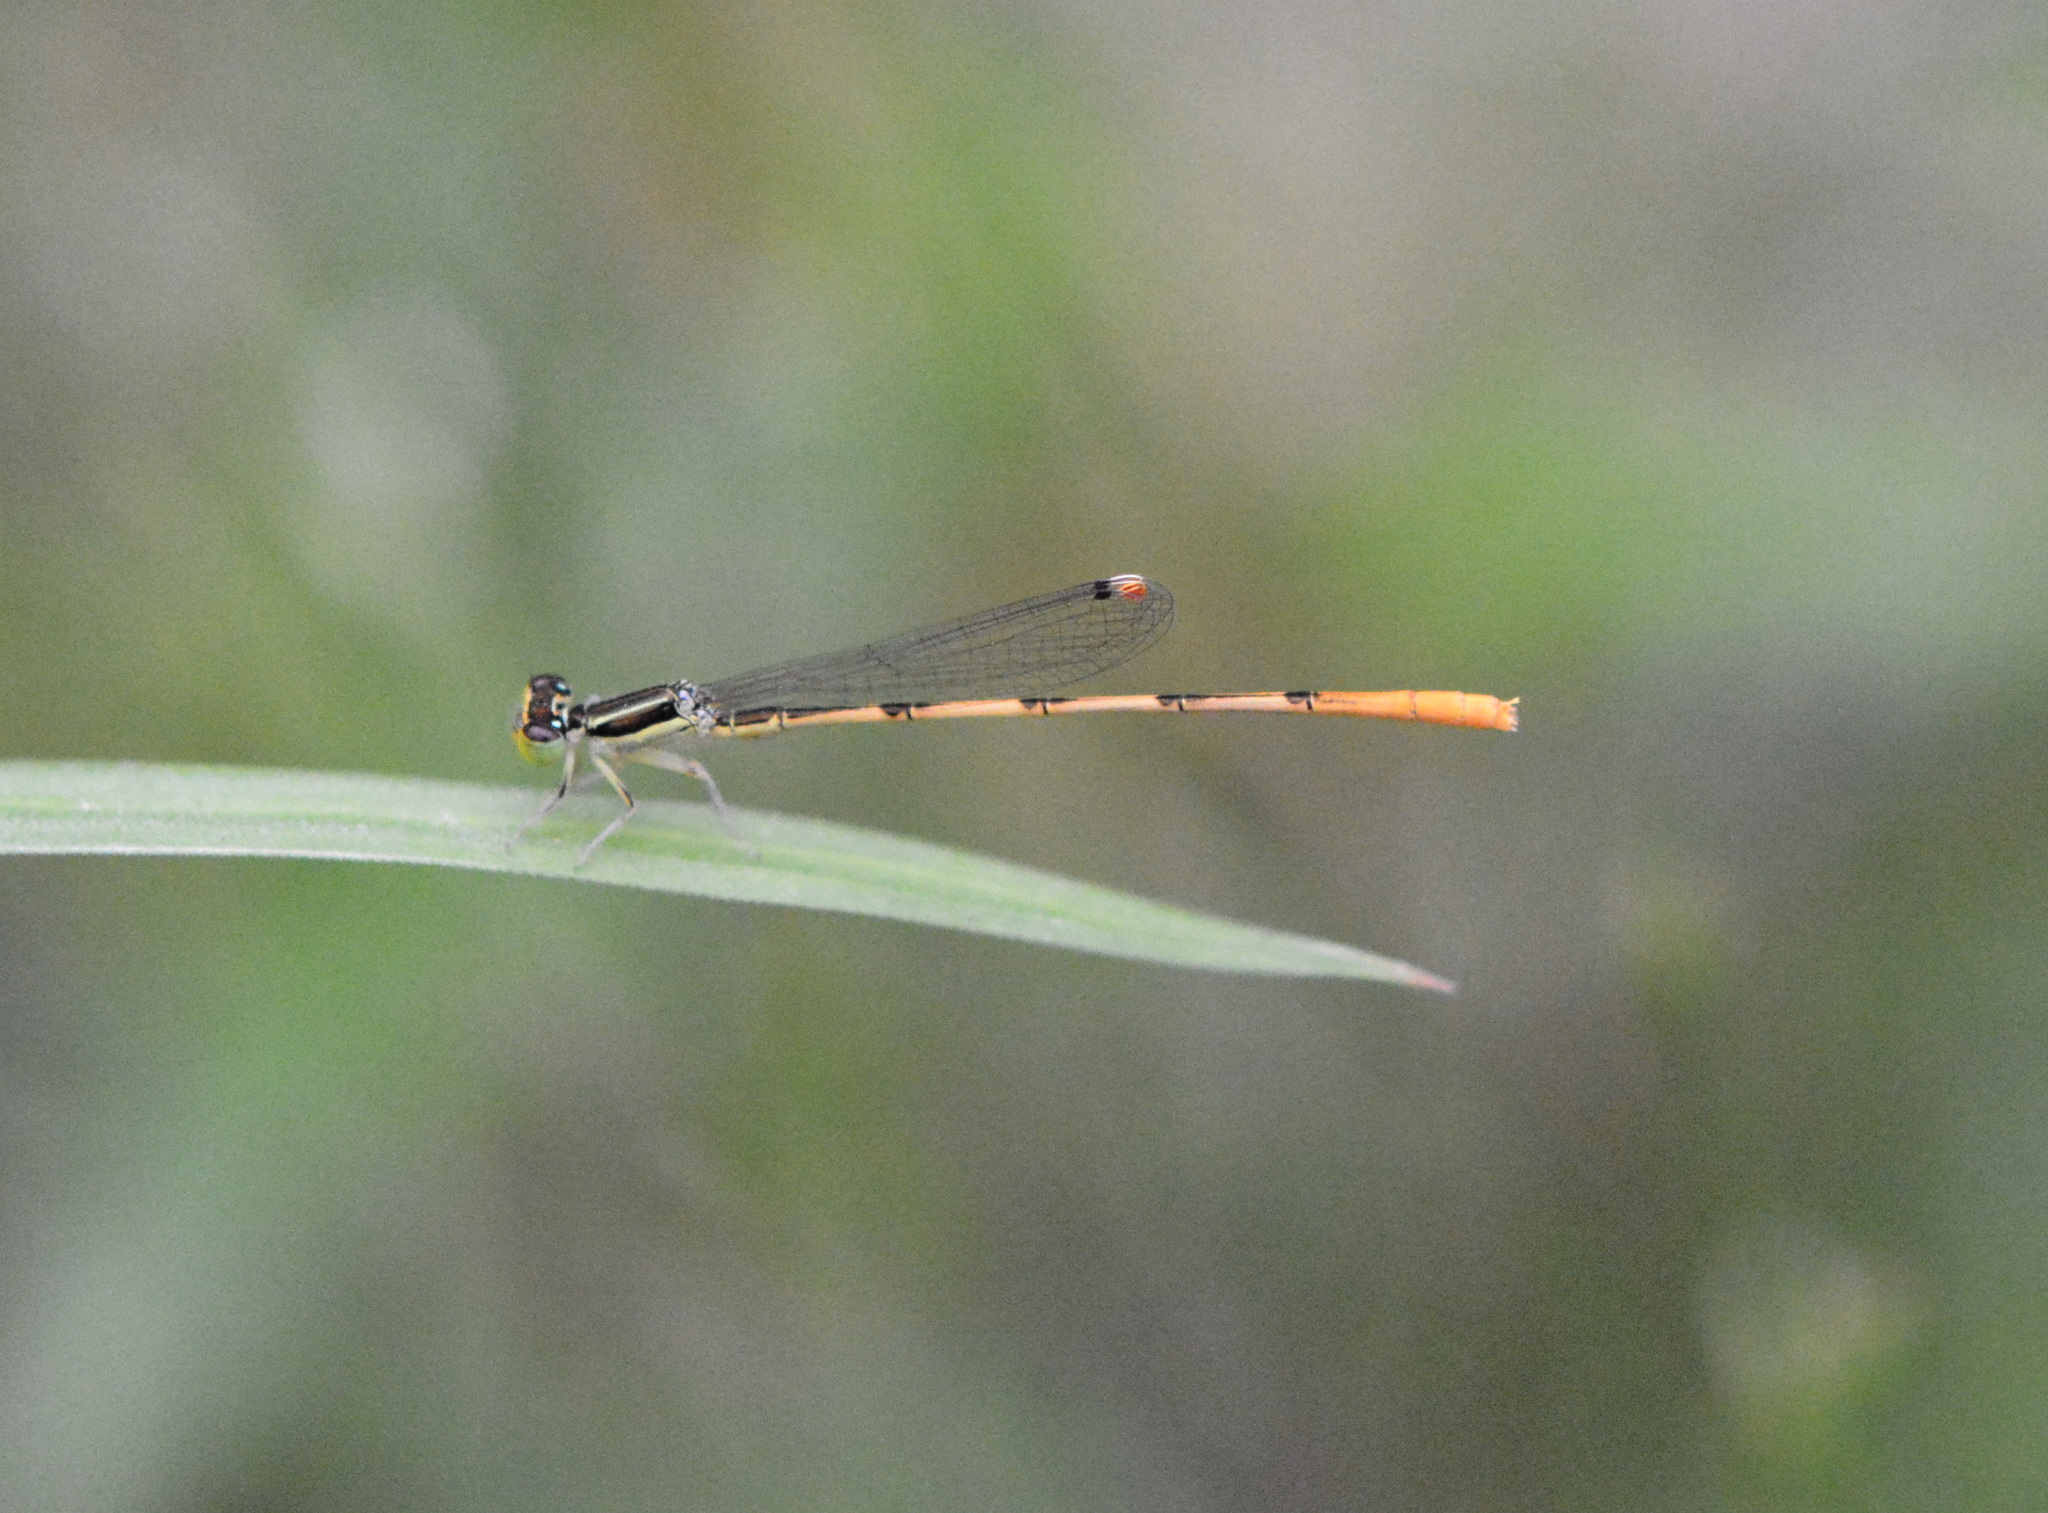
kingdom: Animalia
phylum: Arthropoda
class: Insecta
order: Odonata
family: Coenagrionidae
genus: Ischnura
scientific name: Ischnura hastata
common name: Citrine forktail
